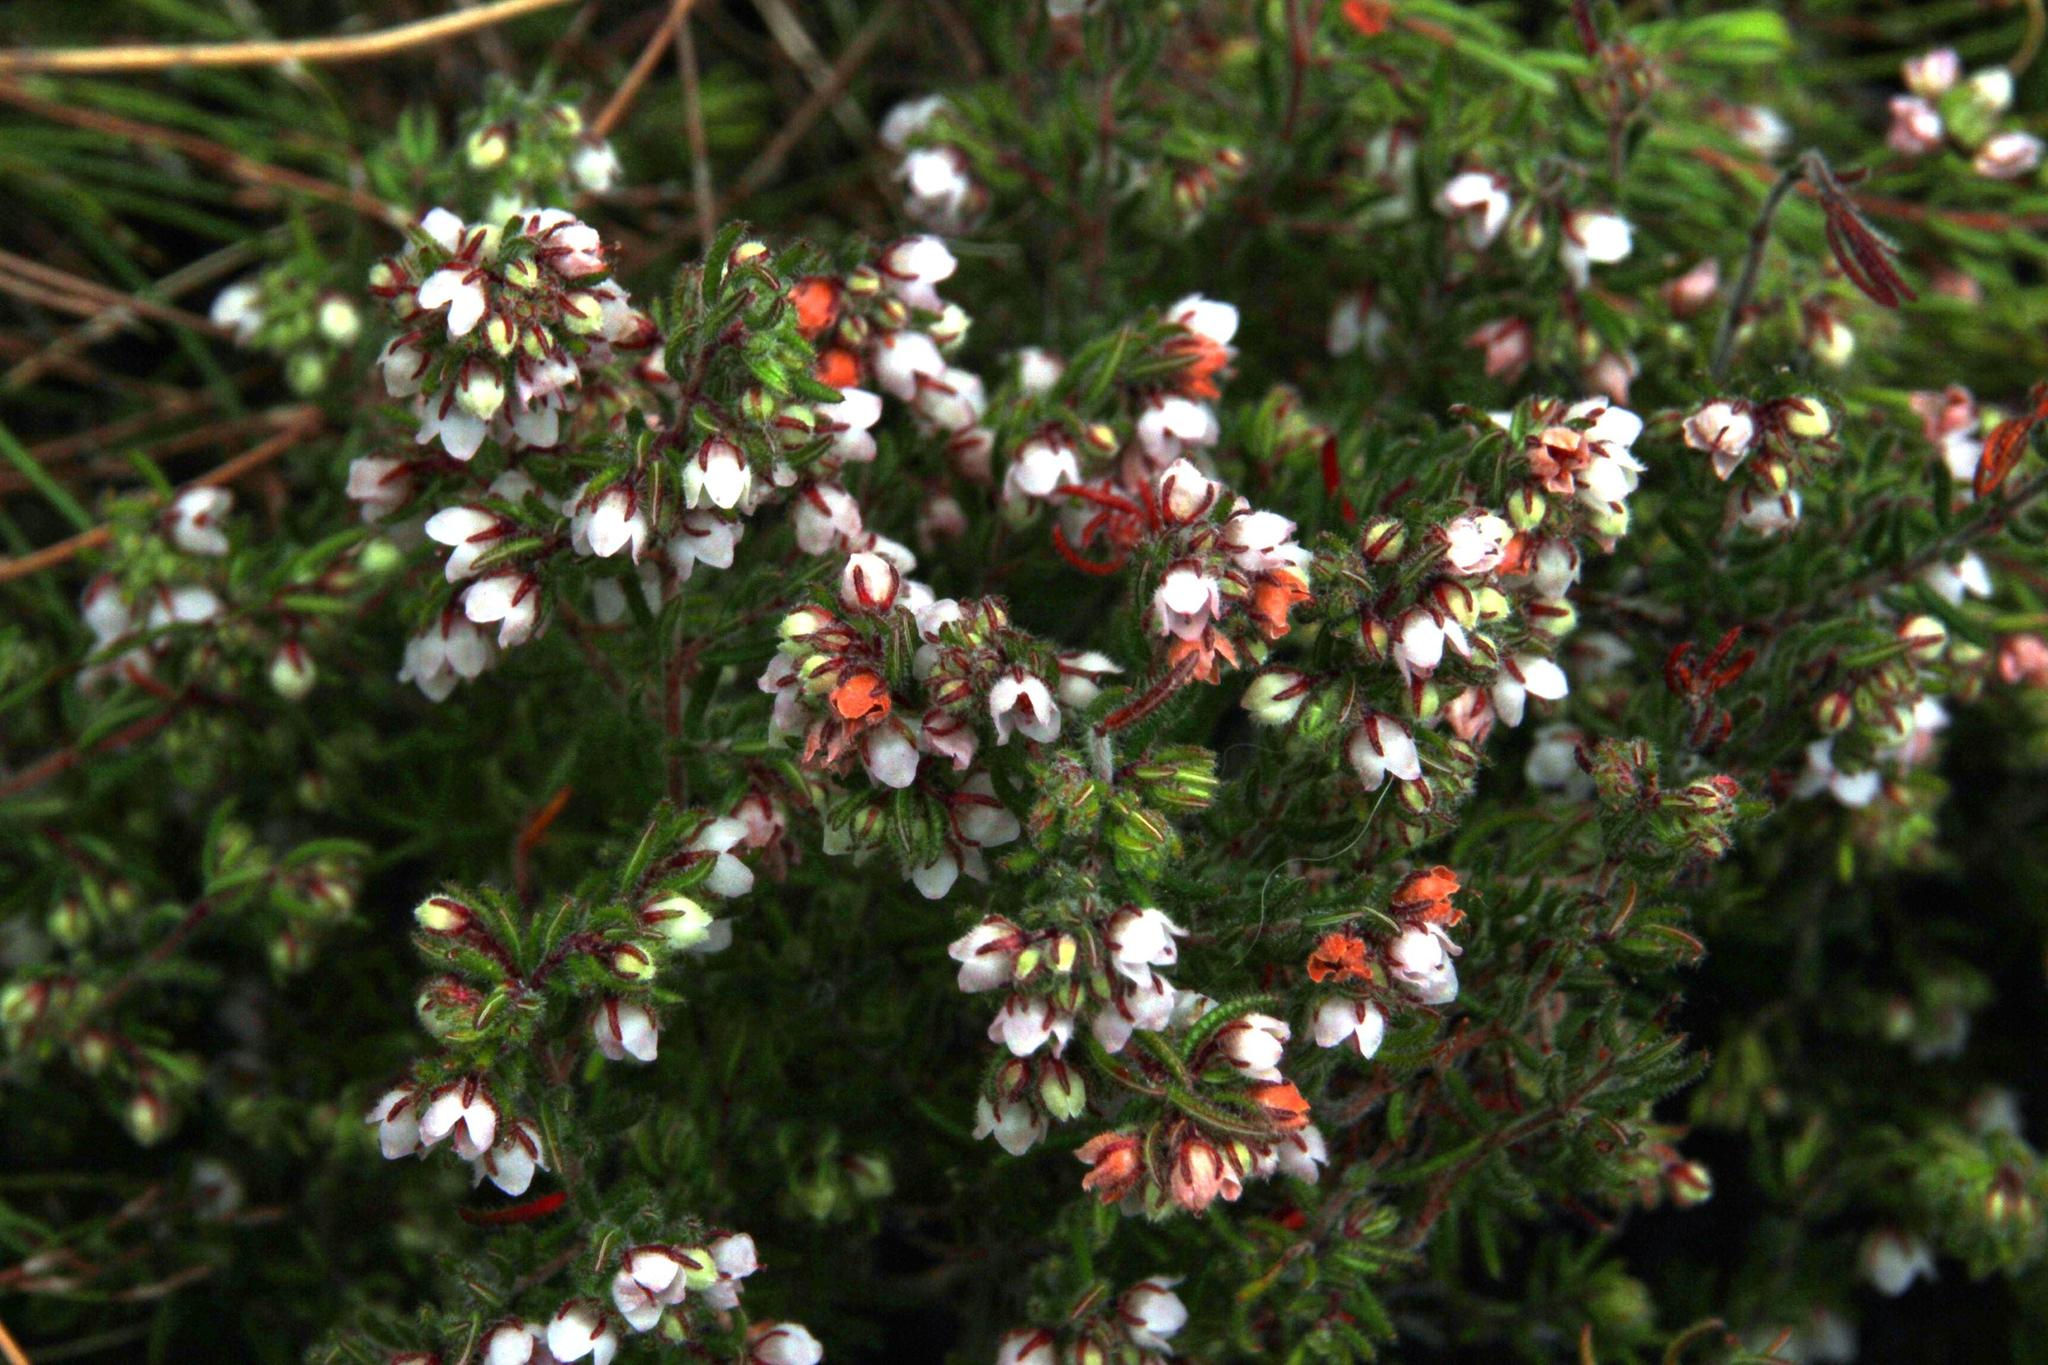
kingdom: Plantae
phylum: Tracheophyta
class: Magnoliopsida
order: Ericales
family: Ericaceae
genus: Erica
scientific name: Erica distorta
